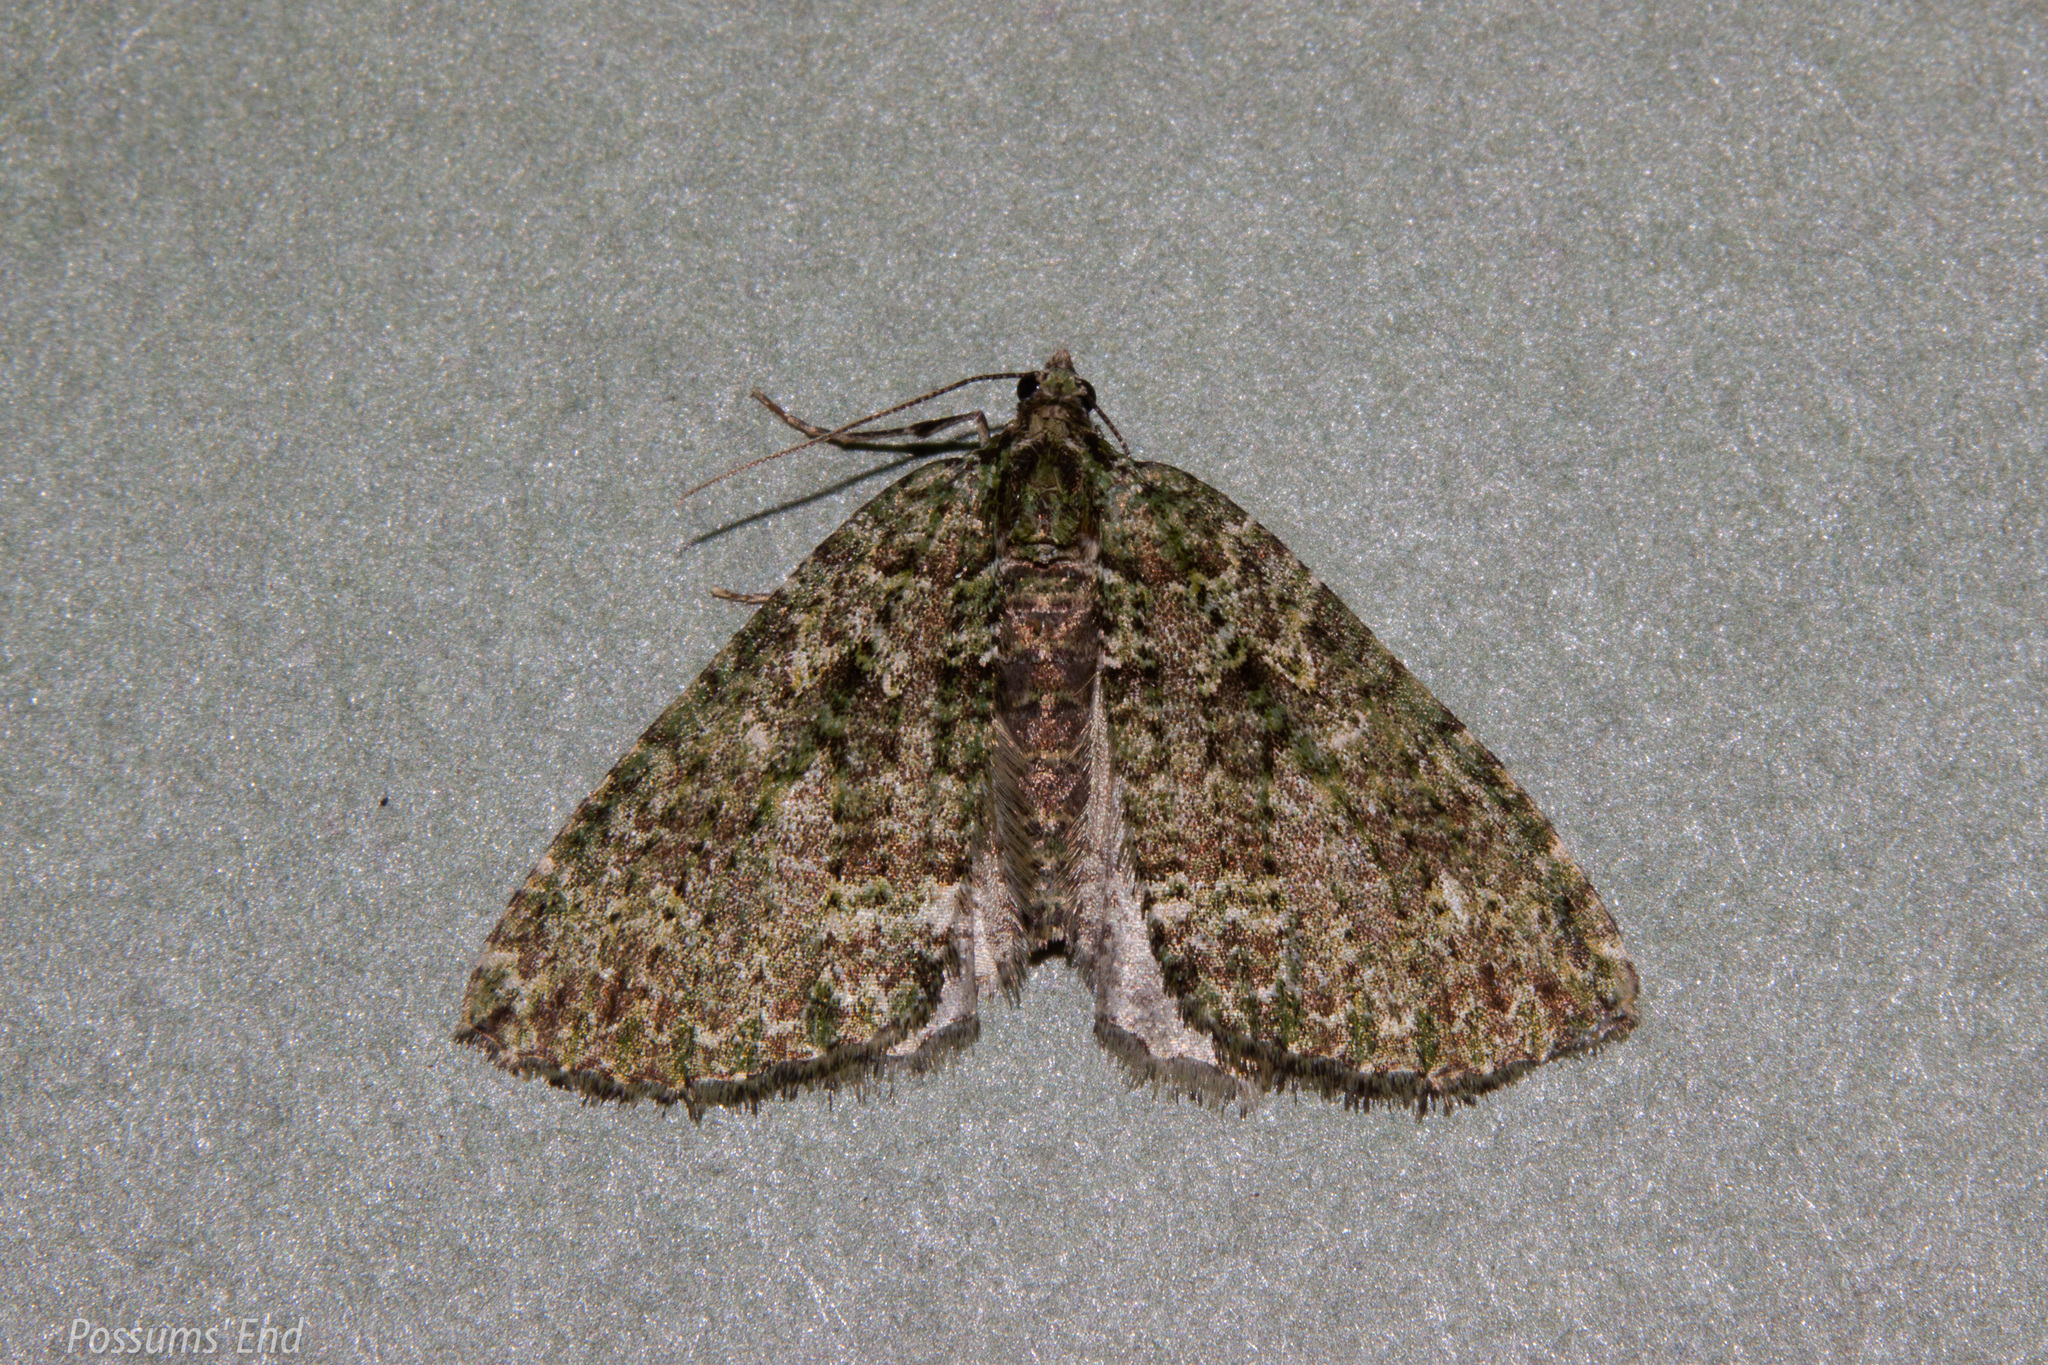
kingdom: Animalia
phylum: Arthropoda
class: Insecta
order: Lepidoptera
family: Geometridae
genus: Austrocidaria
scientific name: Austrocidaria callichlora
